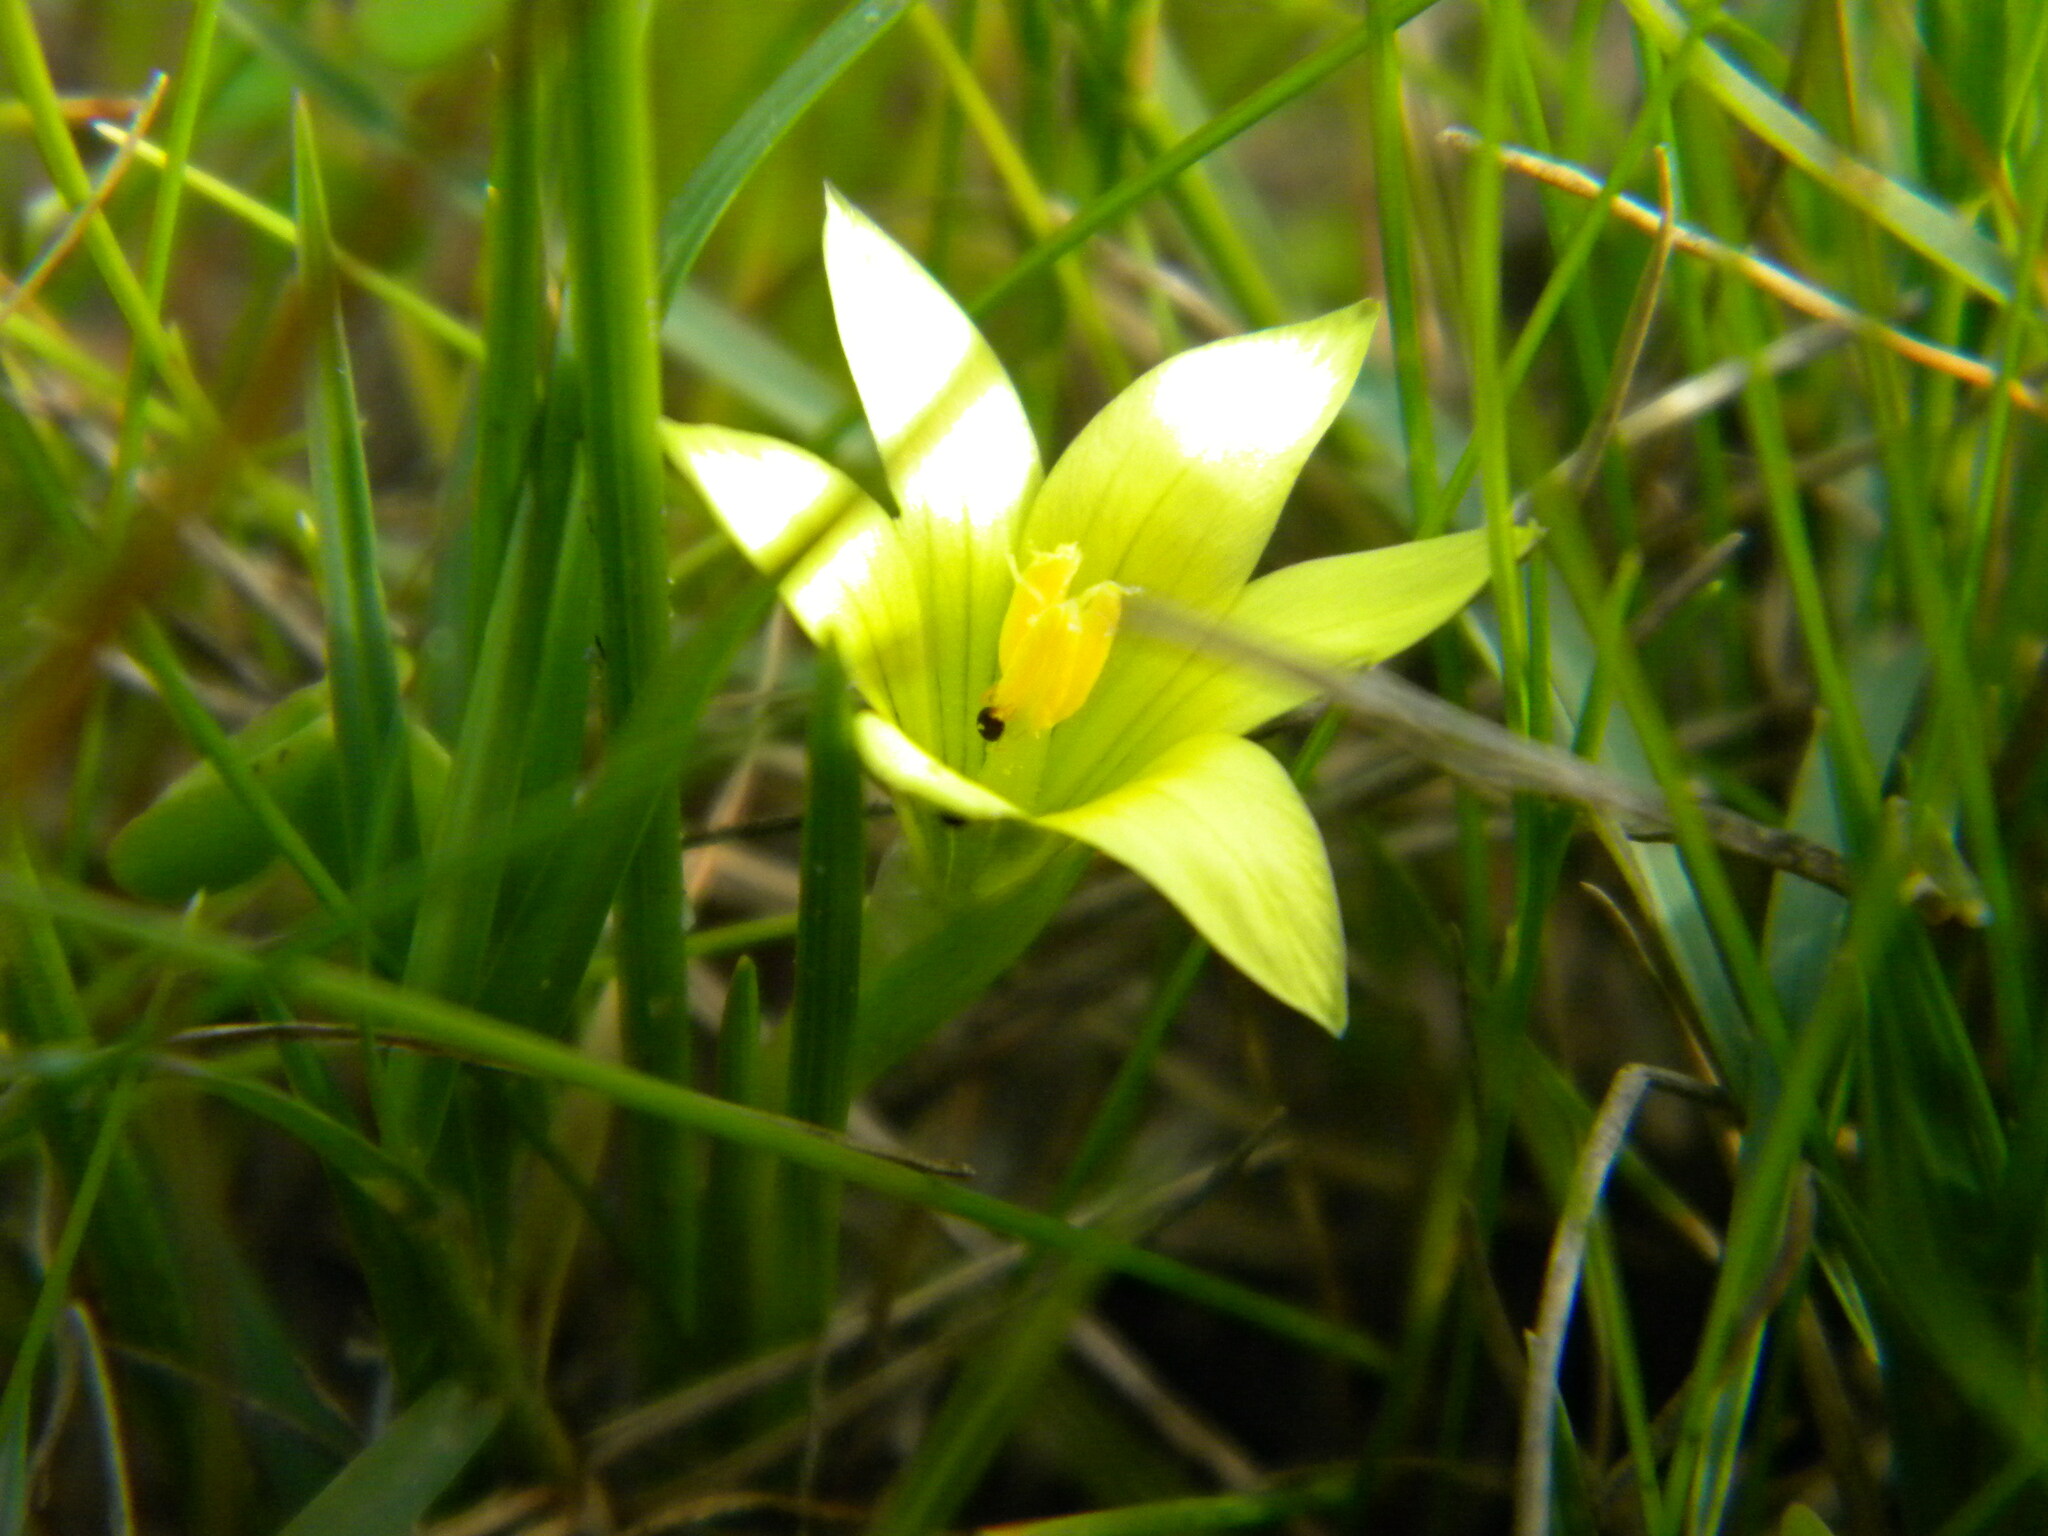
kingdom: Plantae
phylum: Tracheophyta
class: Liliopsida
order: Asparagales
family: Iridaceae
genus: Romulea
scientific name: Romulea flava
